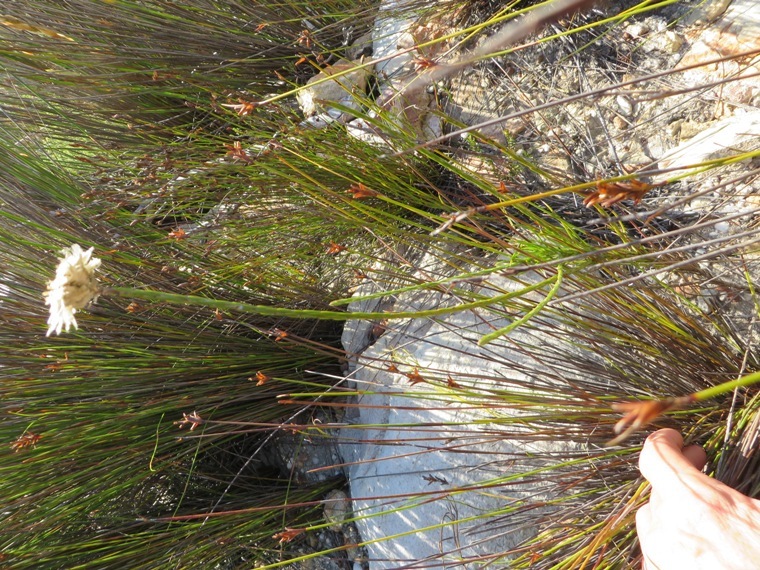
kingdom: Plantae
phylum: Tracheophyta
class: Magnoliopsida
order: Asterales
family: Asteraceae
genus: Edmondia
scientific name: Edmondia sesamoides
